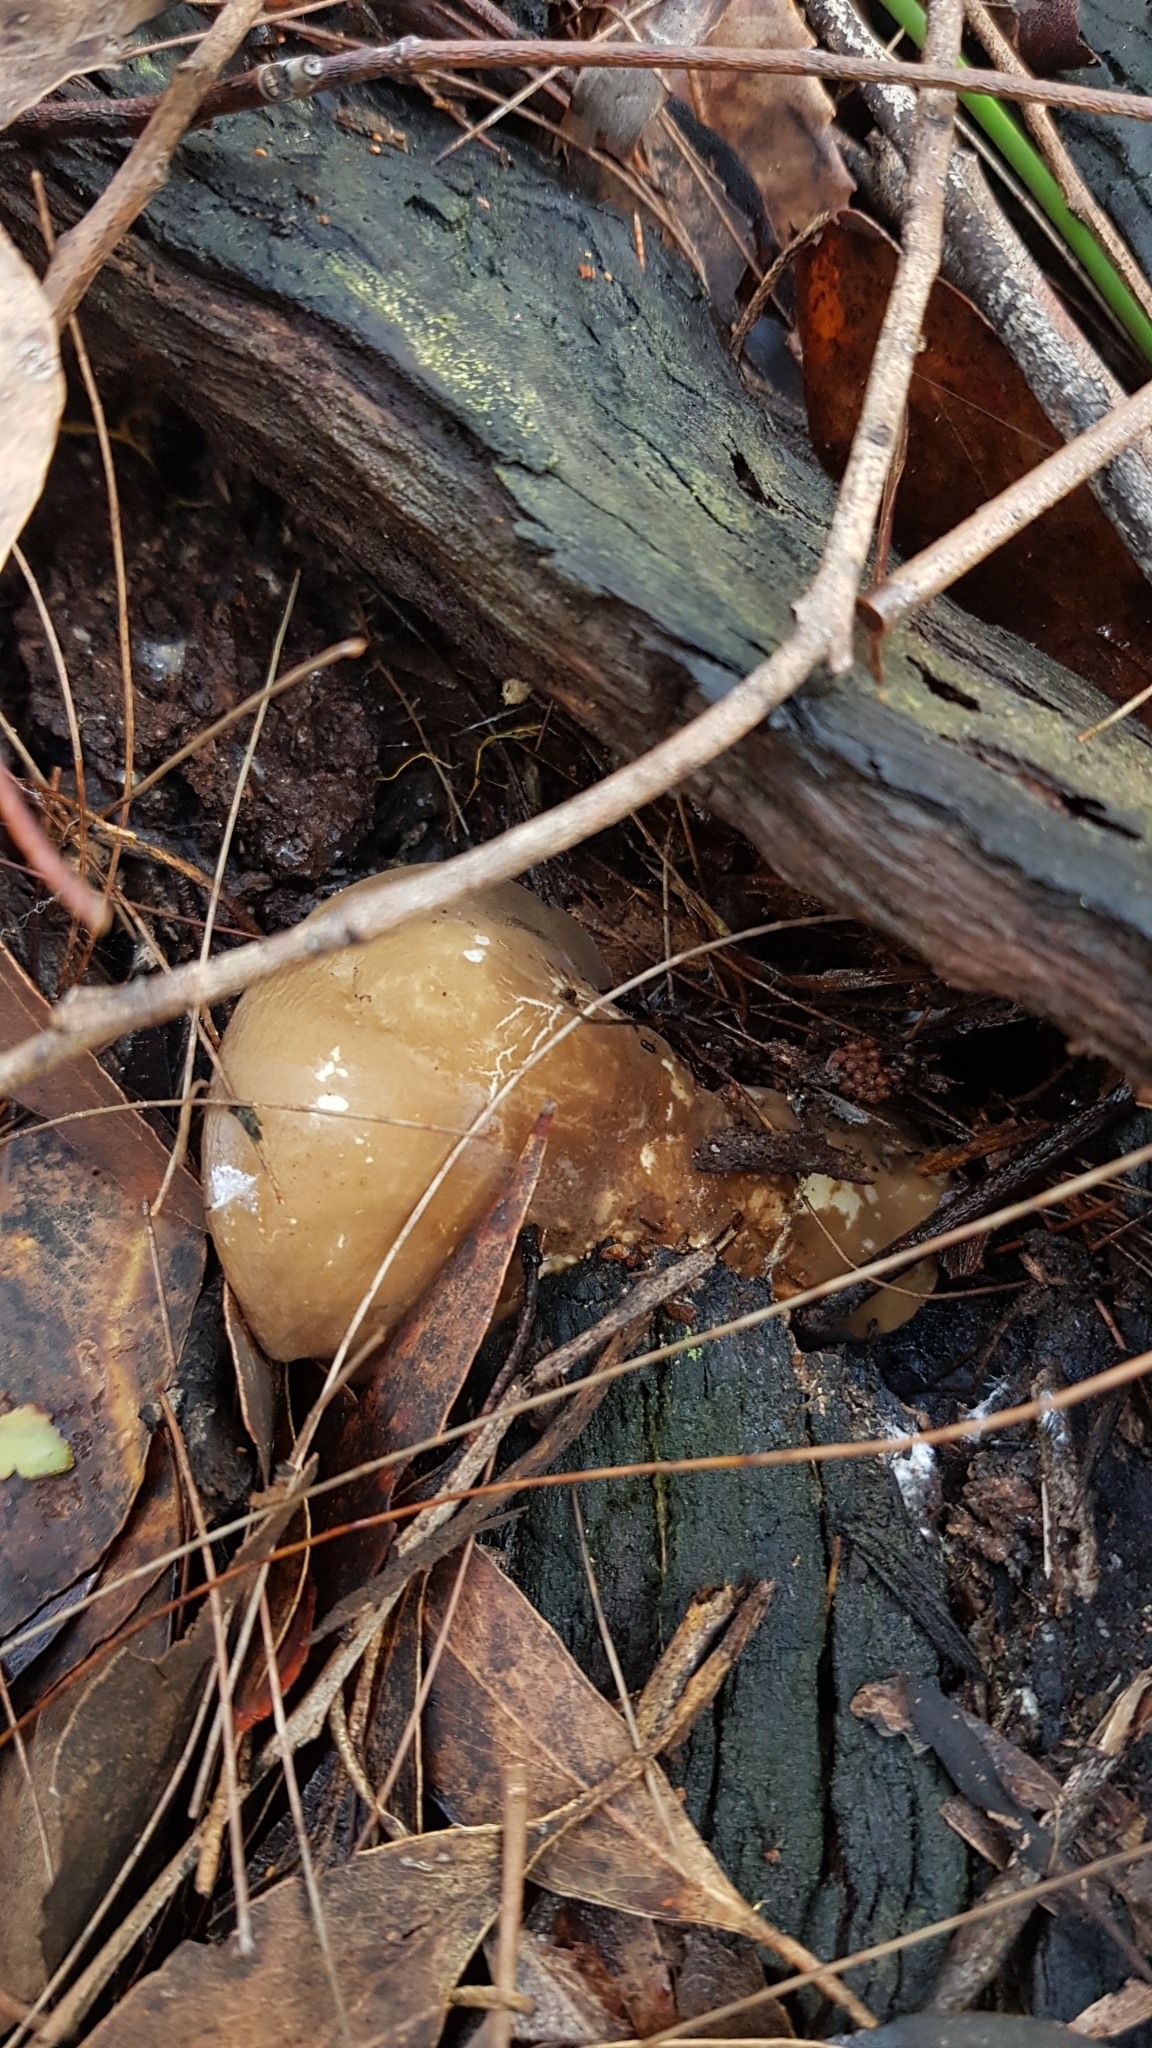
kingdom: Fungi
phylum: Basidiomycota
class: Agaricomycetes
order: Russulales
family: Russulaceae
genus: Lactifluus
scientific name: Lactifluus wirrabara
